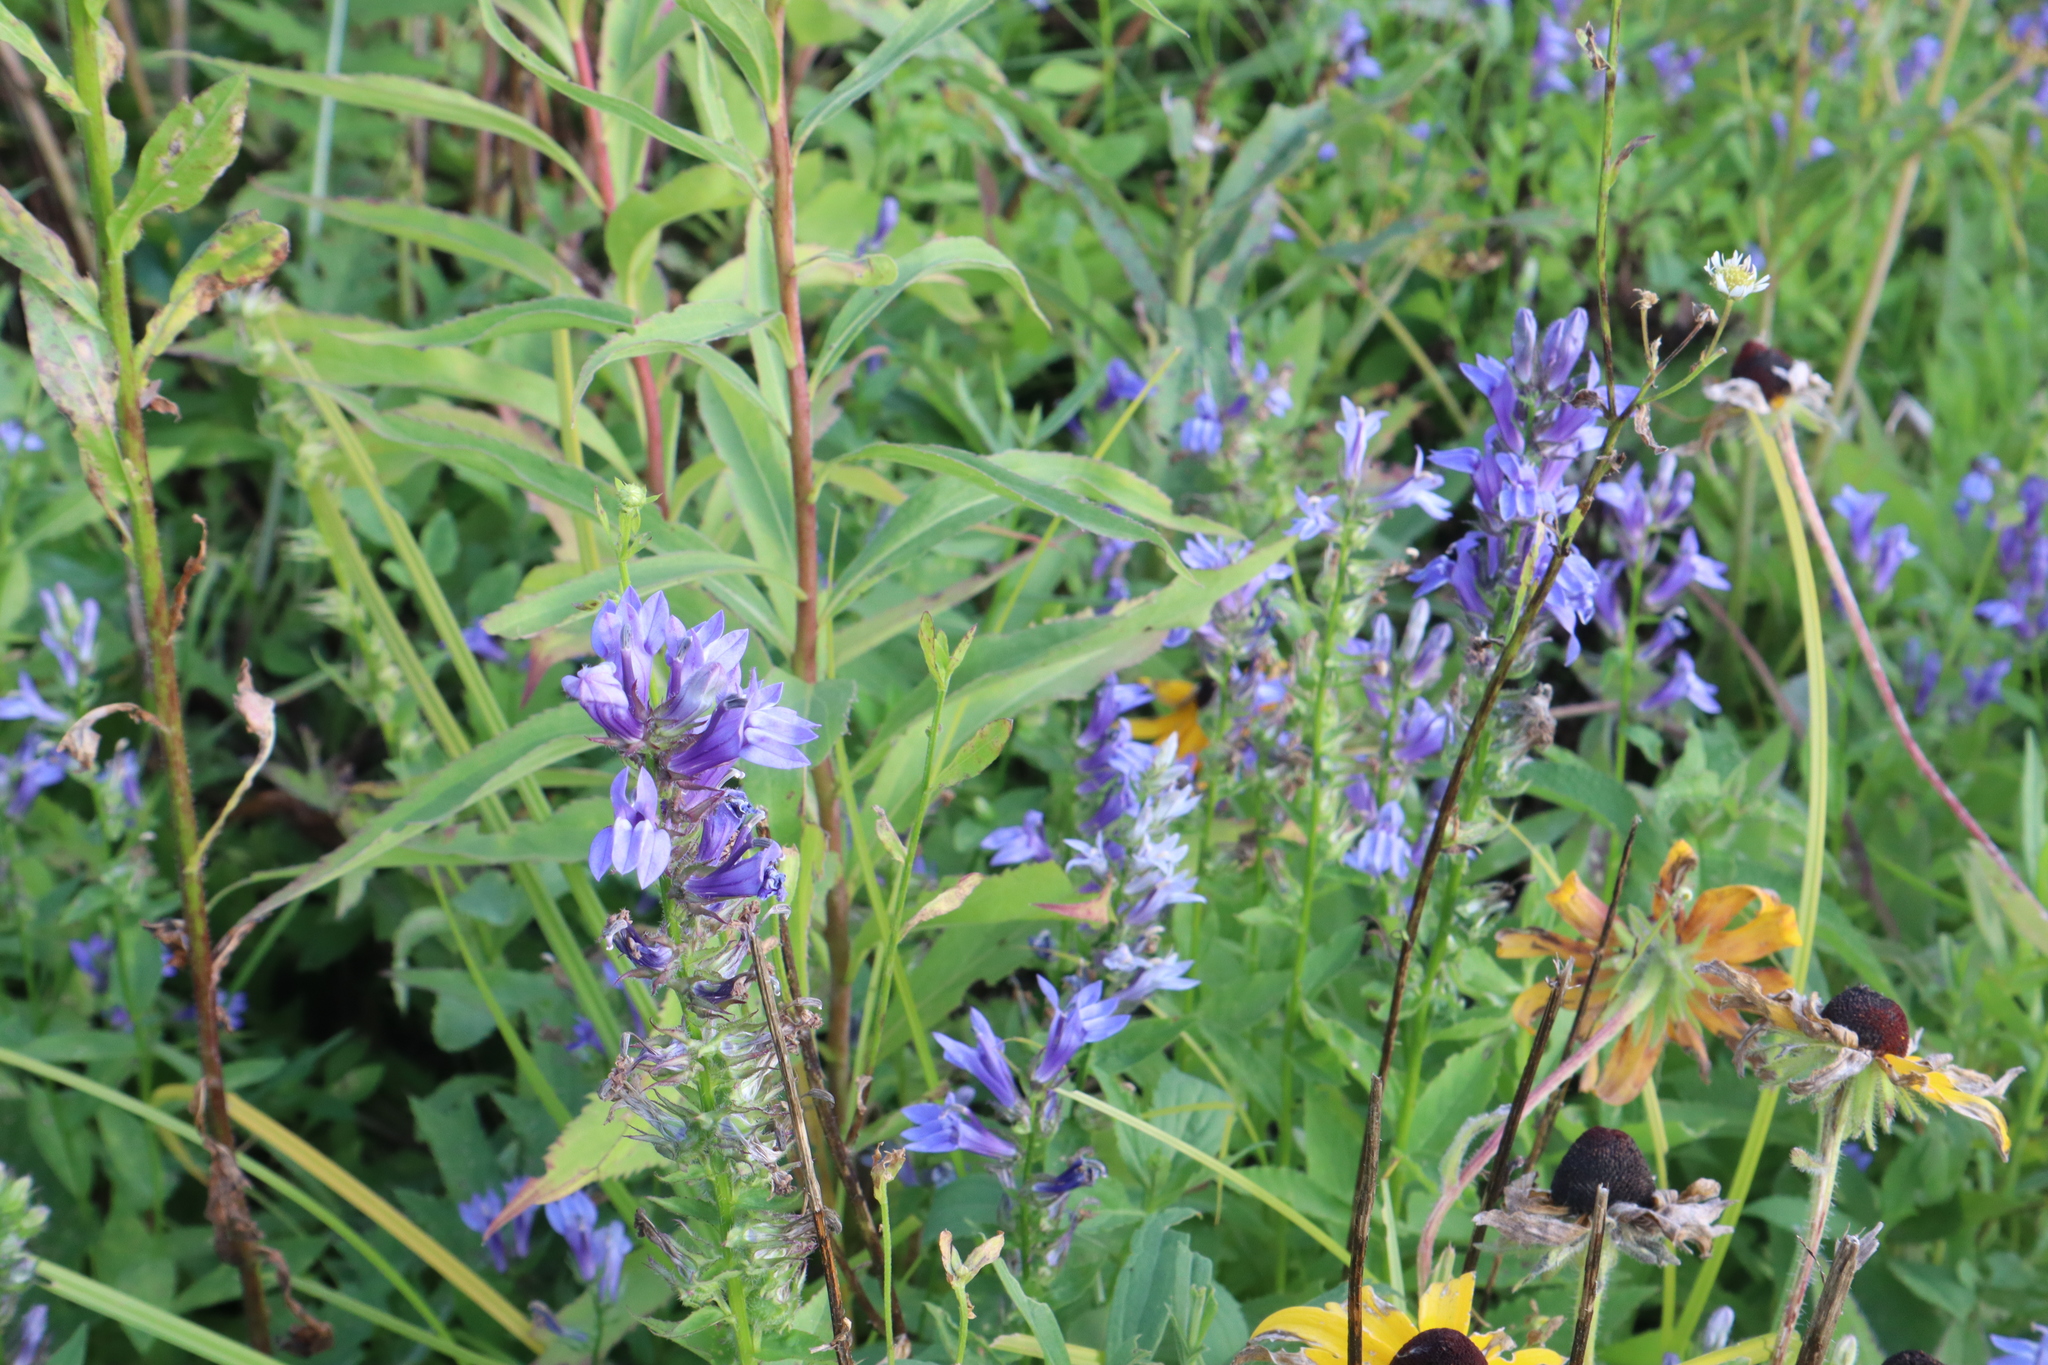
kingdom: Plantae
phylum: Tracheophyta
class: Magnoliopsida
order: Asterales
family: Campanulaceae
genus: Lobelia
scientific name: Lobelia siphilitica
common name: Great lobelia
